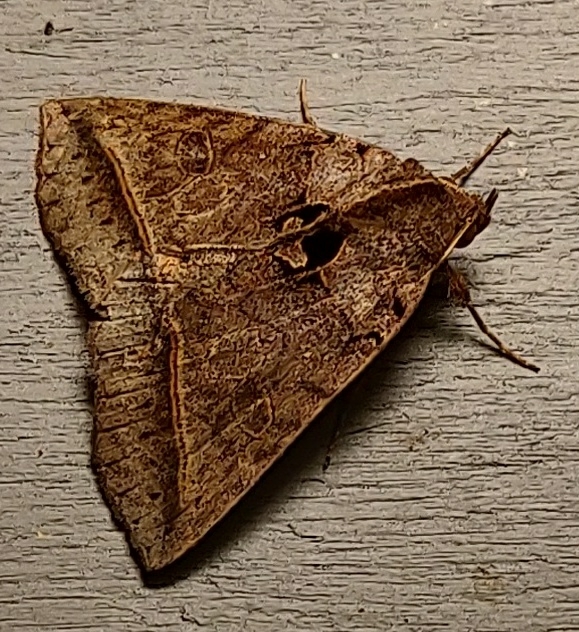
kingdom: Animalia
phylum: Arthropoda
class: Insecta
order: Lepidoptera
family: Erebidae
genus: Celiptera
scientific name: Celiptera frustulum
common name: Black bit moth
